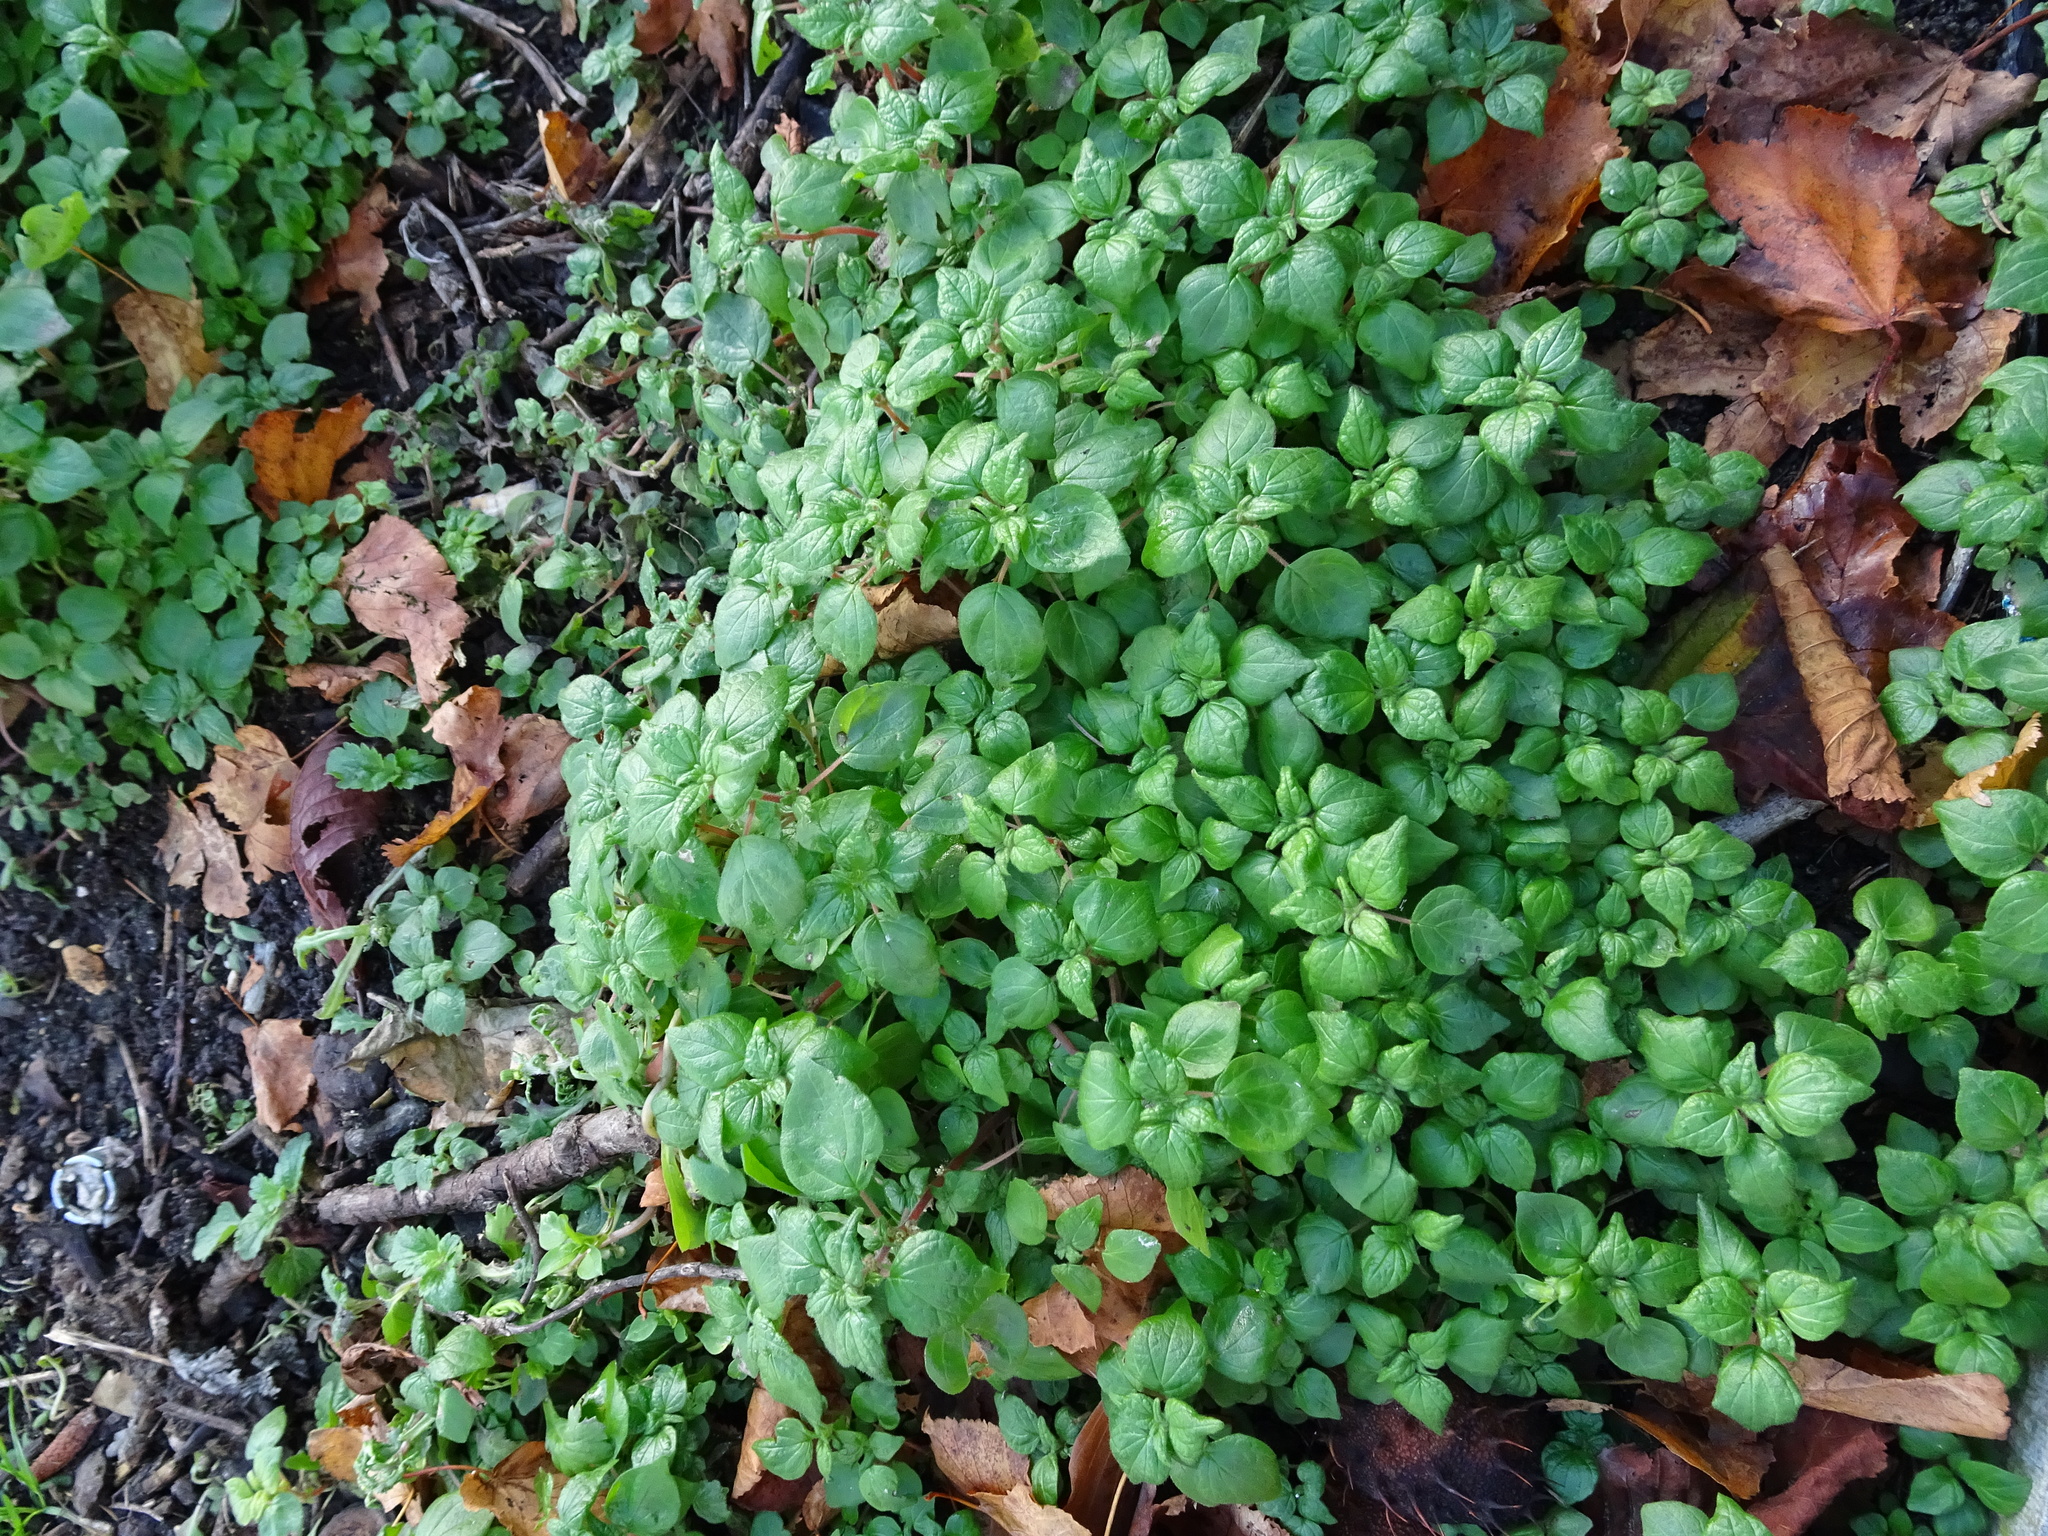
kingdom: Plantae
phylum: Tracheophyta
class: Magnoliopsida
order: Rosales
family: Urticaceae
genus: Parietaria
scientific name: Parietaria judaica
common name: Pellitory-of-the-wall
